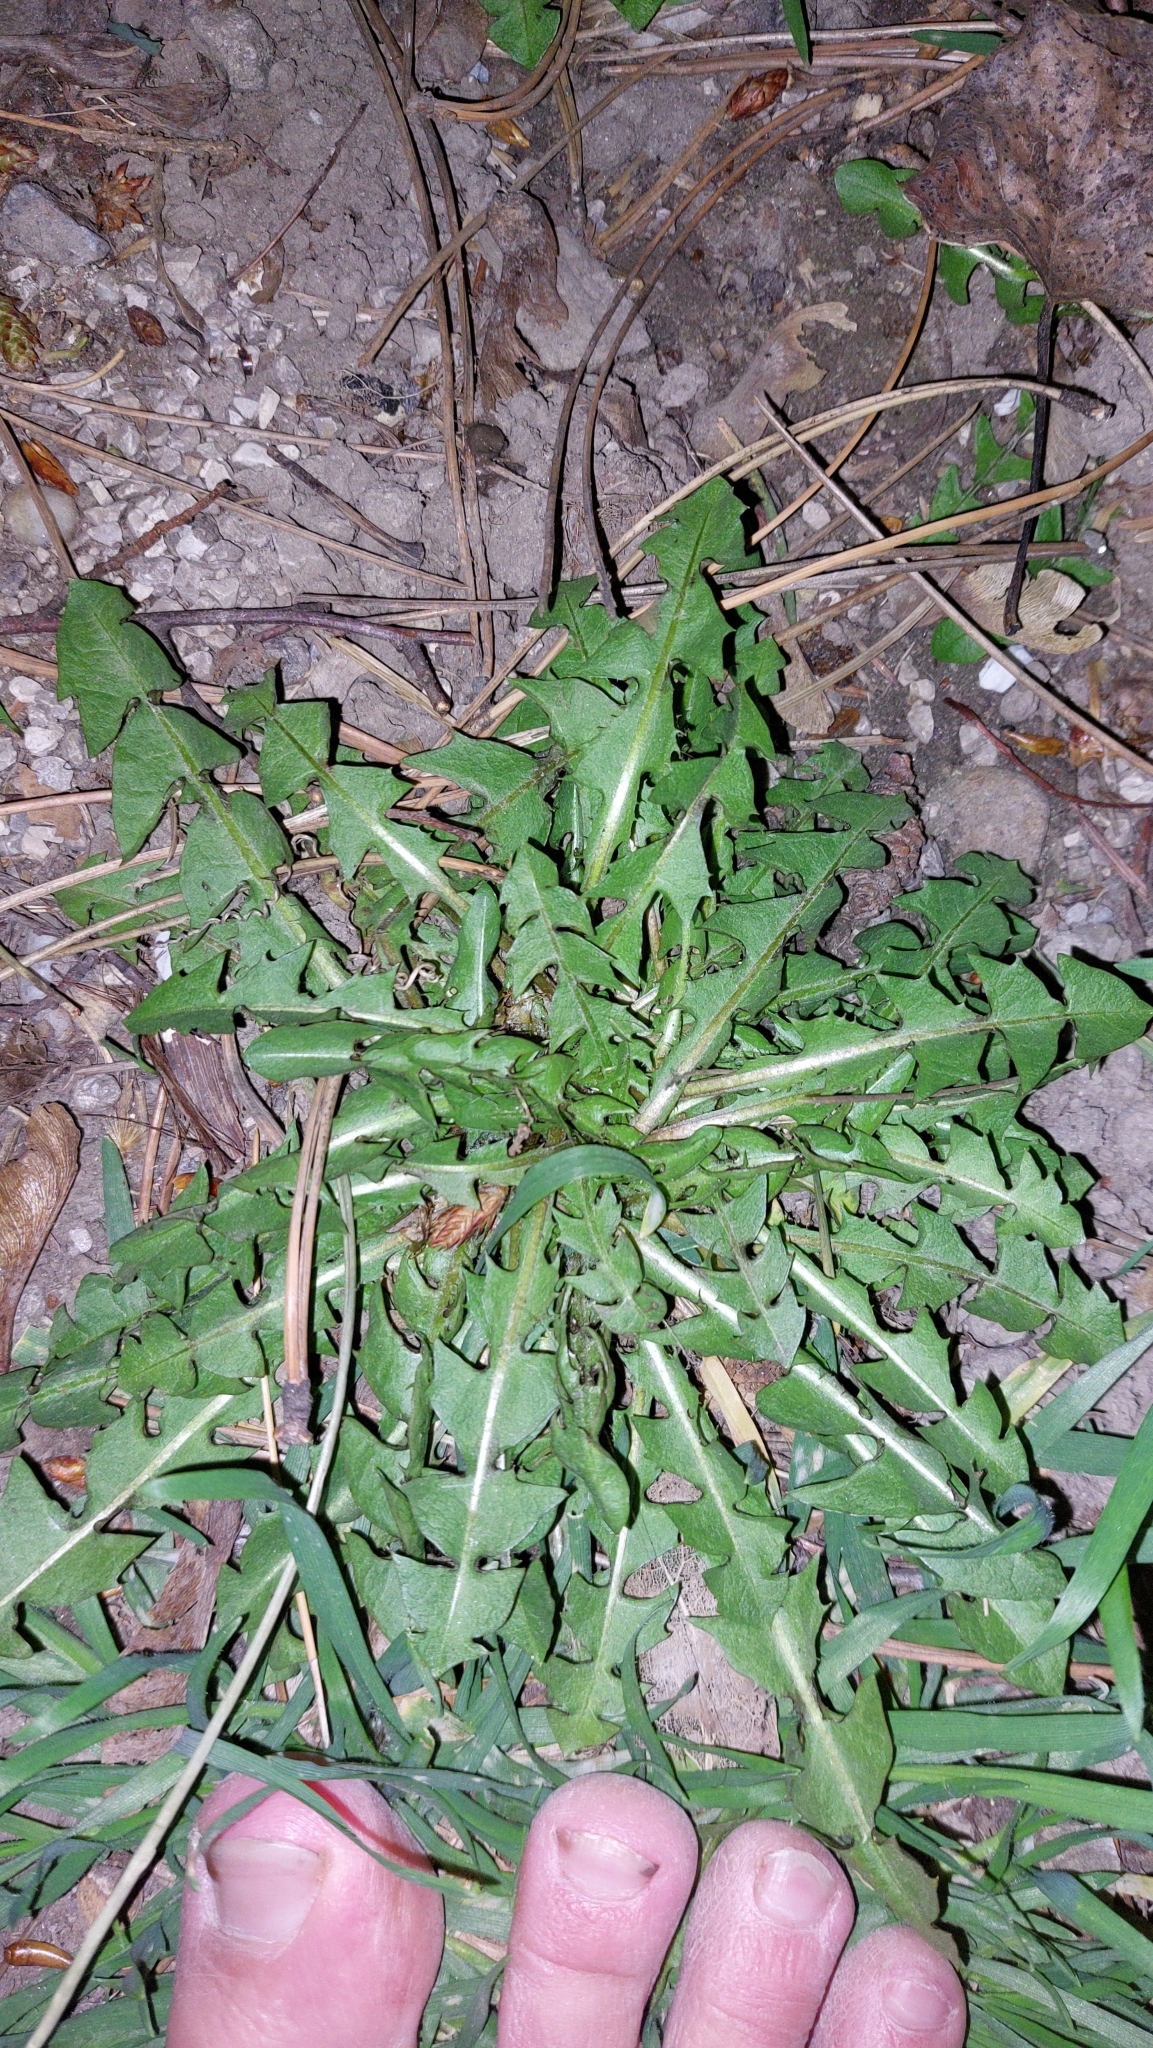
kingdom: Plantae
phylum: Tracheophyta
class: Magnoliopsida
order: Asterales
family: Asteraceae
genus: Taraxacum
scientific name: Taraxacum
